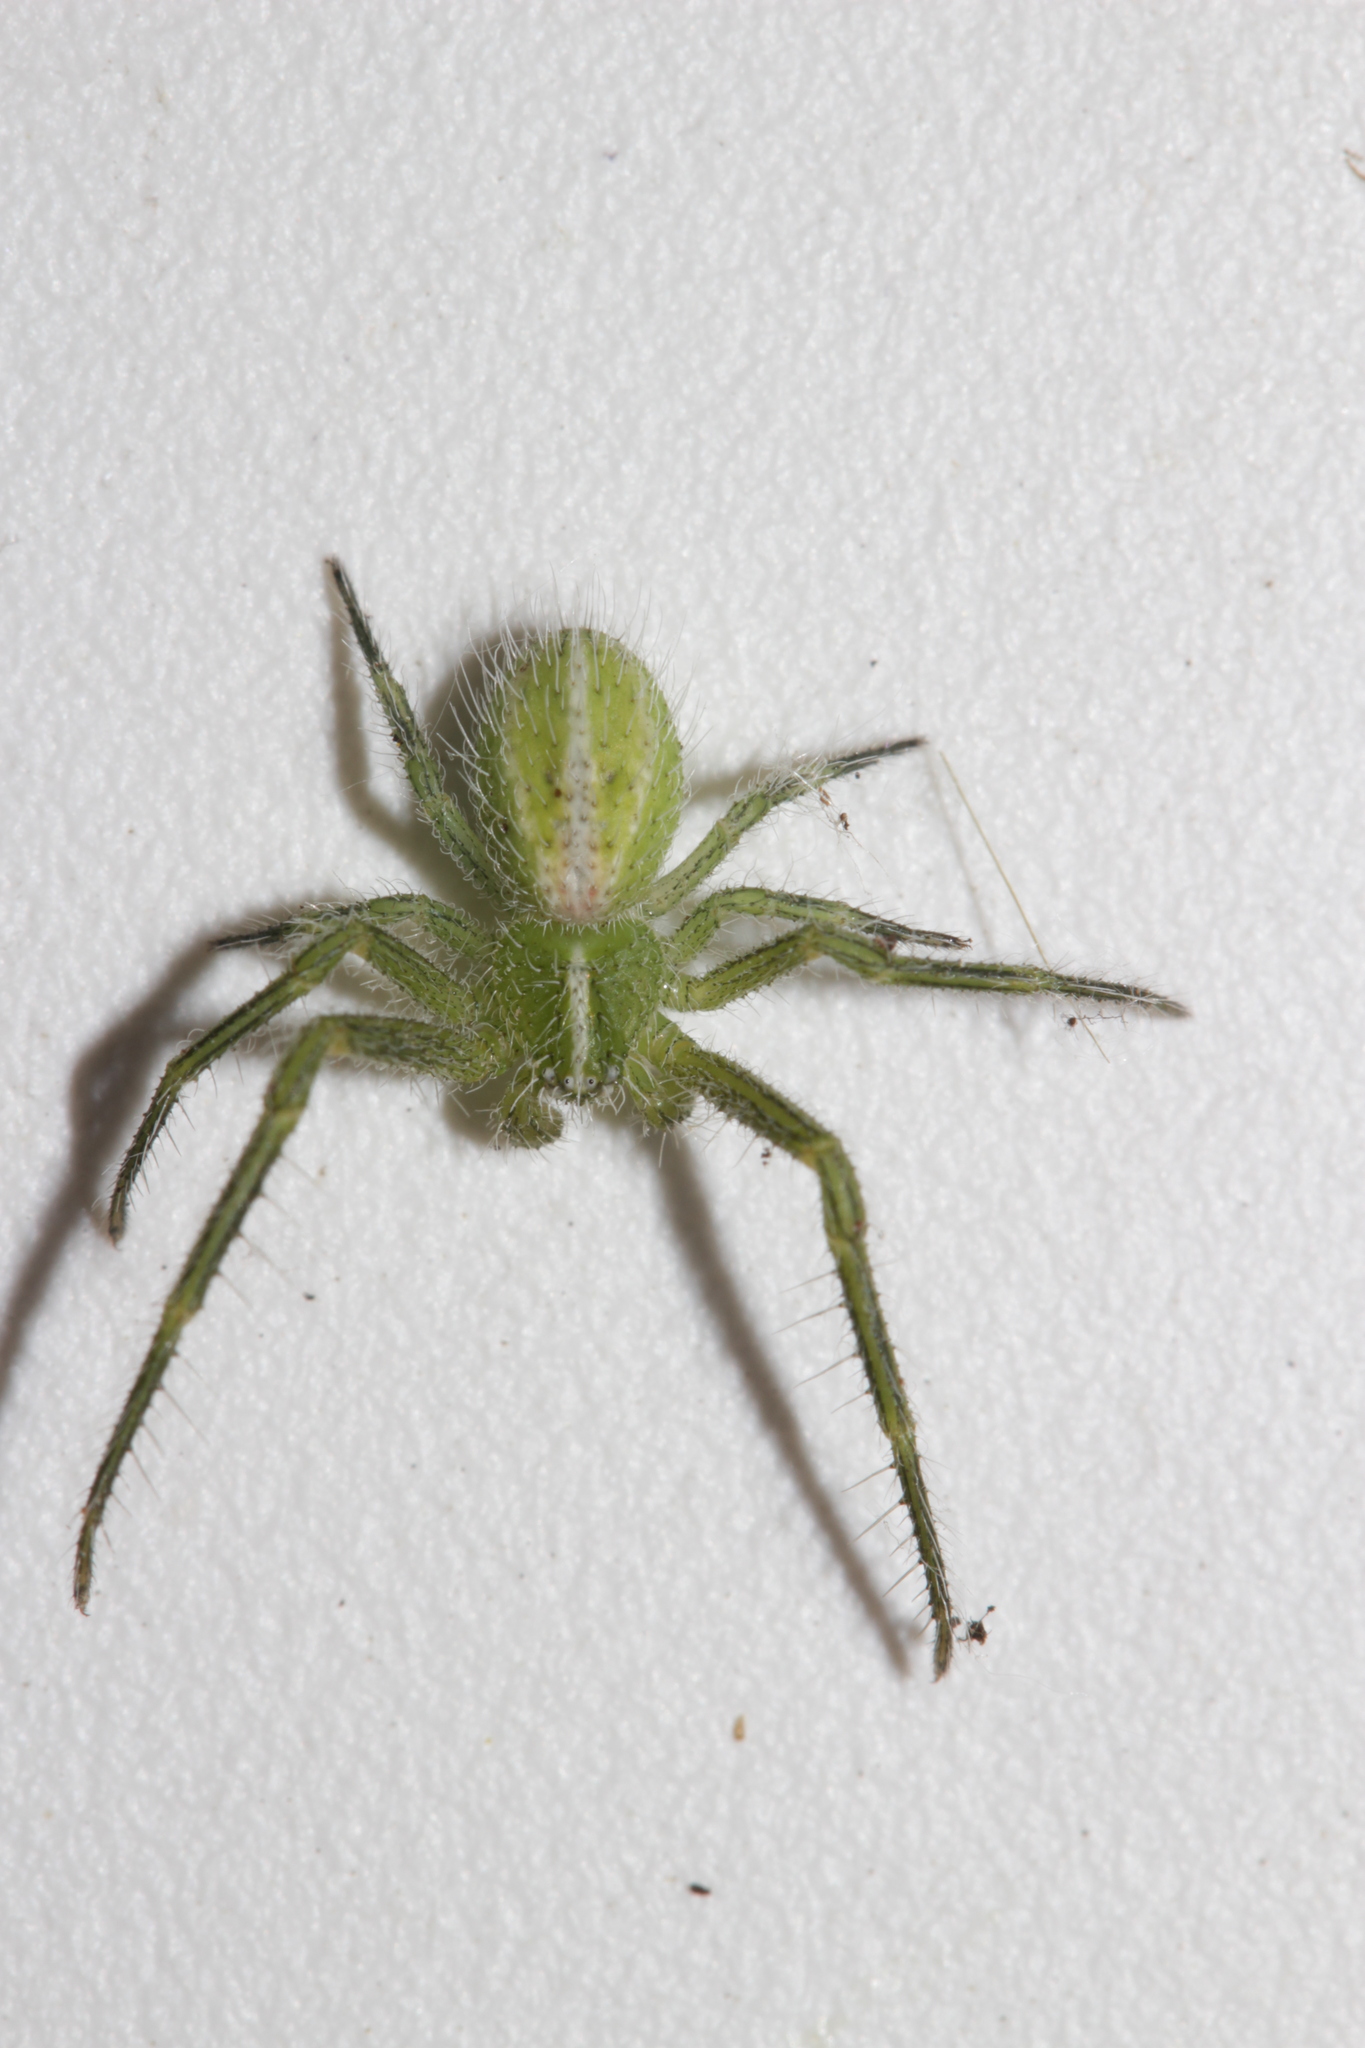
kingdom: Animalia
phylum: Arthropoda
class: Arachnida
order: Araneae
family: Thomisidae
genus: Heriaeus
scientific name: Heriaeus oblongus
